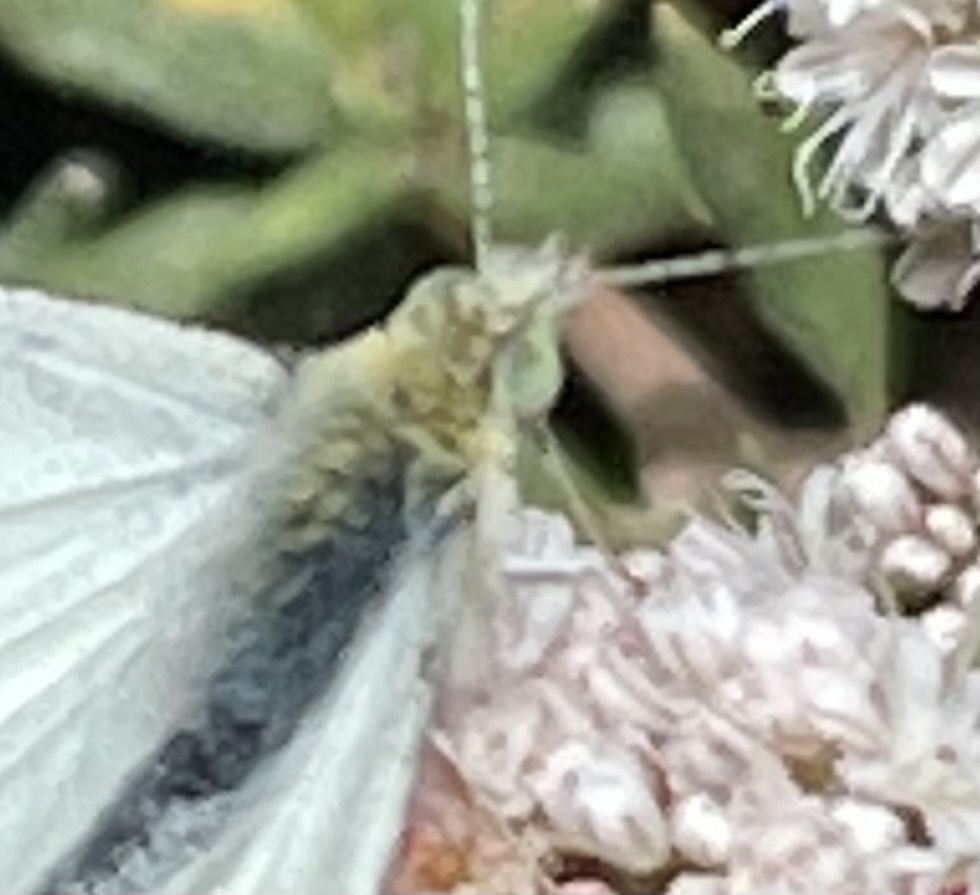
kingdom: Animalia
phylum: Arthropoda
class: Insecta
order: Lepidoptera
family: Pieridae
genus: Pieris
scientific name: Pieris rapae
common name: Small white
